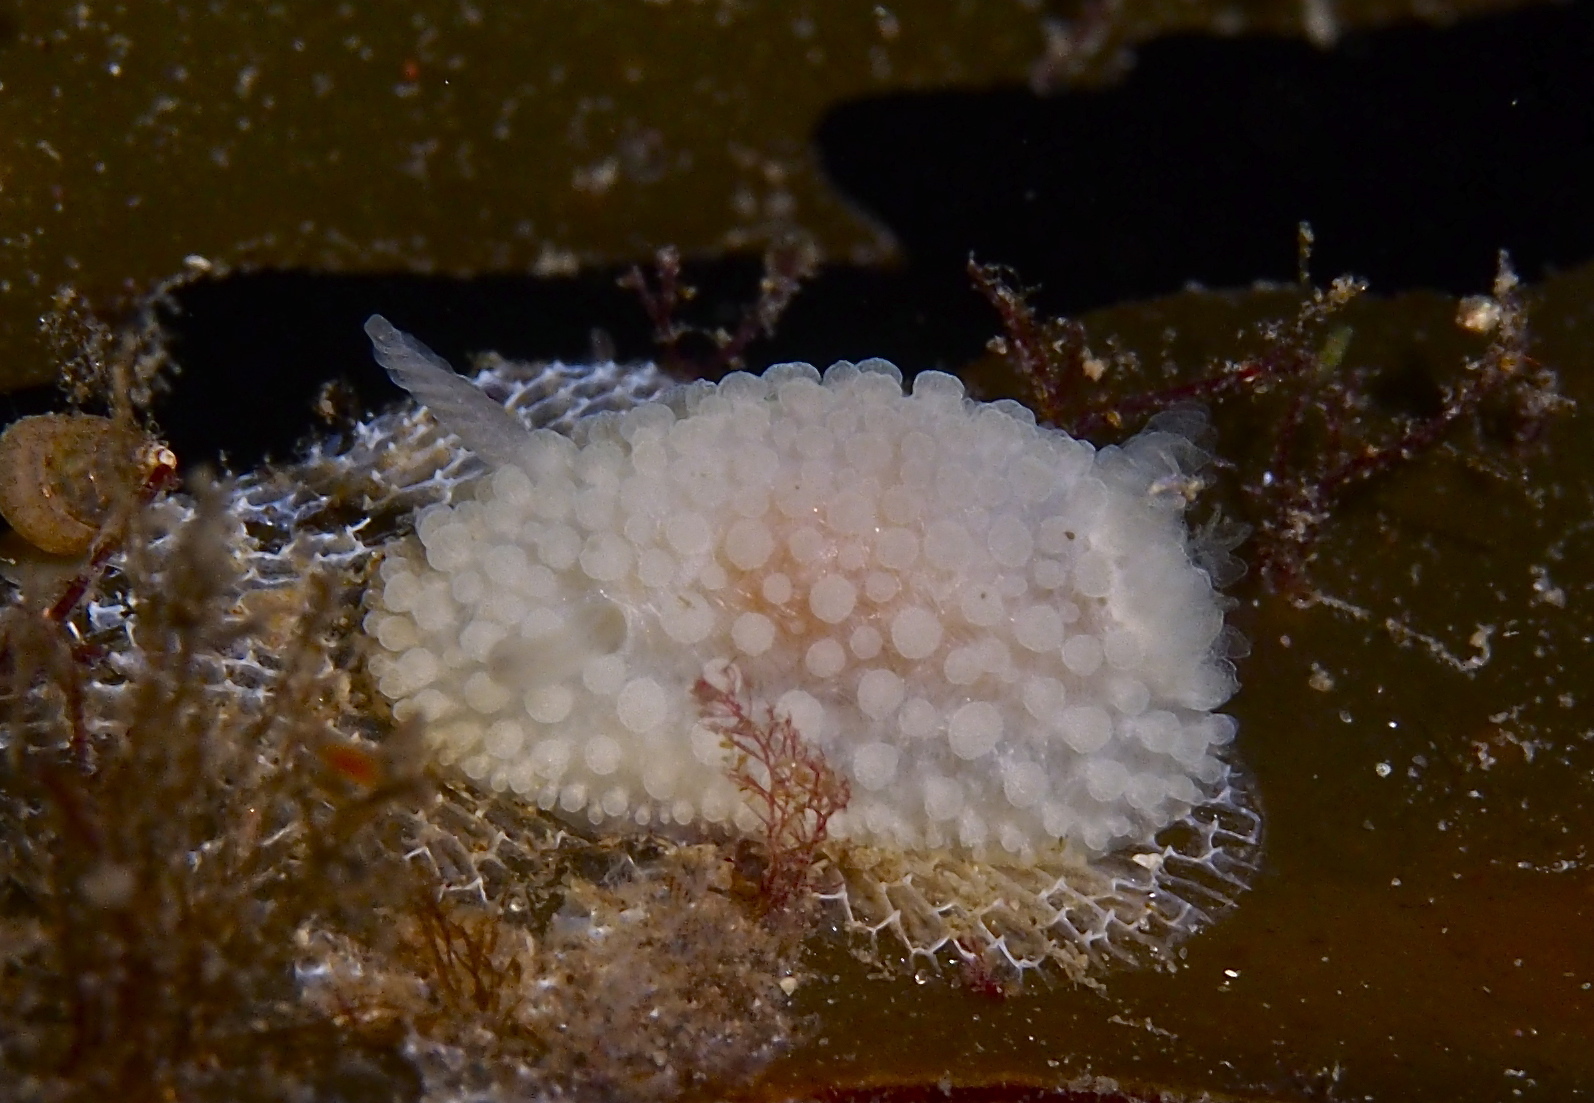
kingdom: Animalia
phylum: Mollusca
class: Gastropoda
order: Nudibranchia
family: Onchidorididae
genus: Onchidoris
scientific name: Onchidoris muricata
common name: Rough doris
